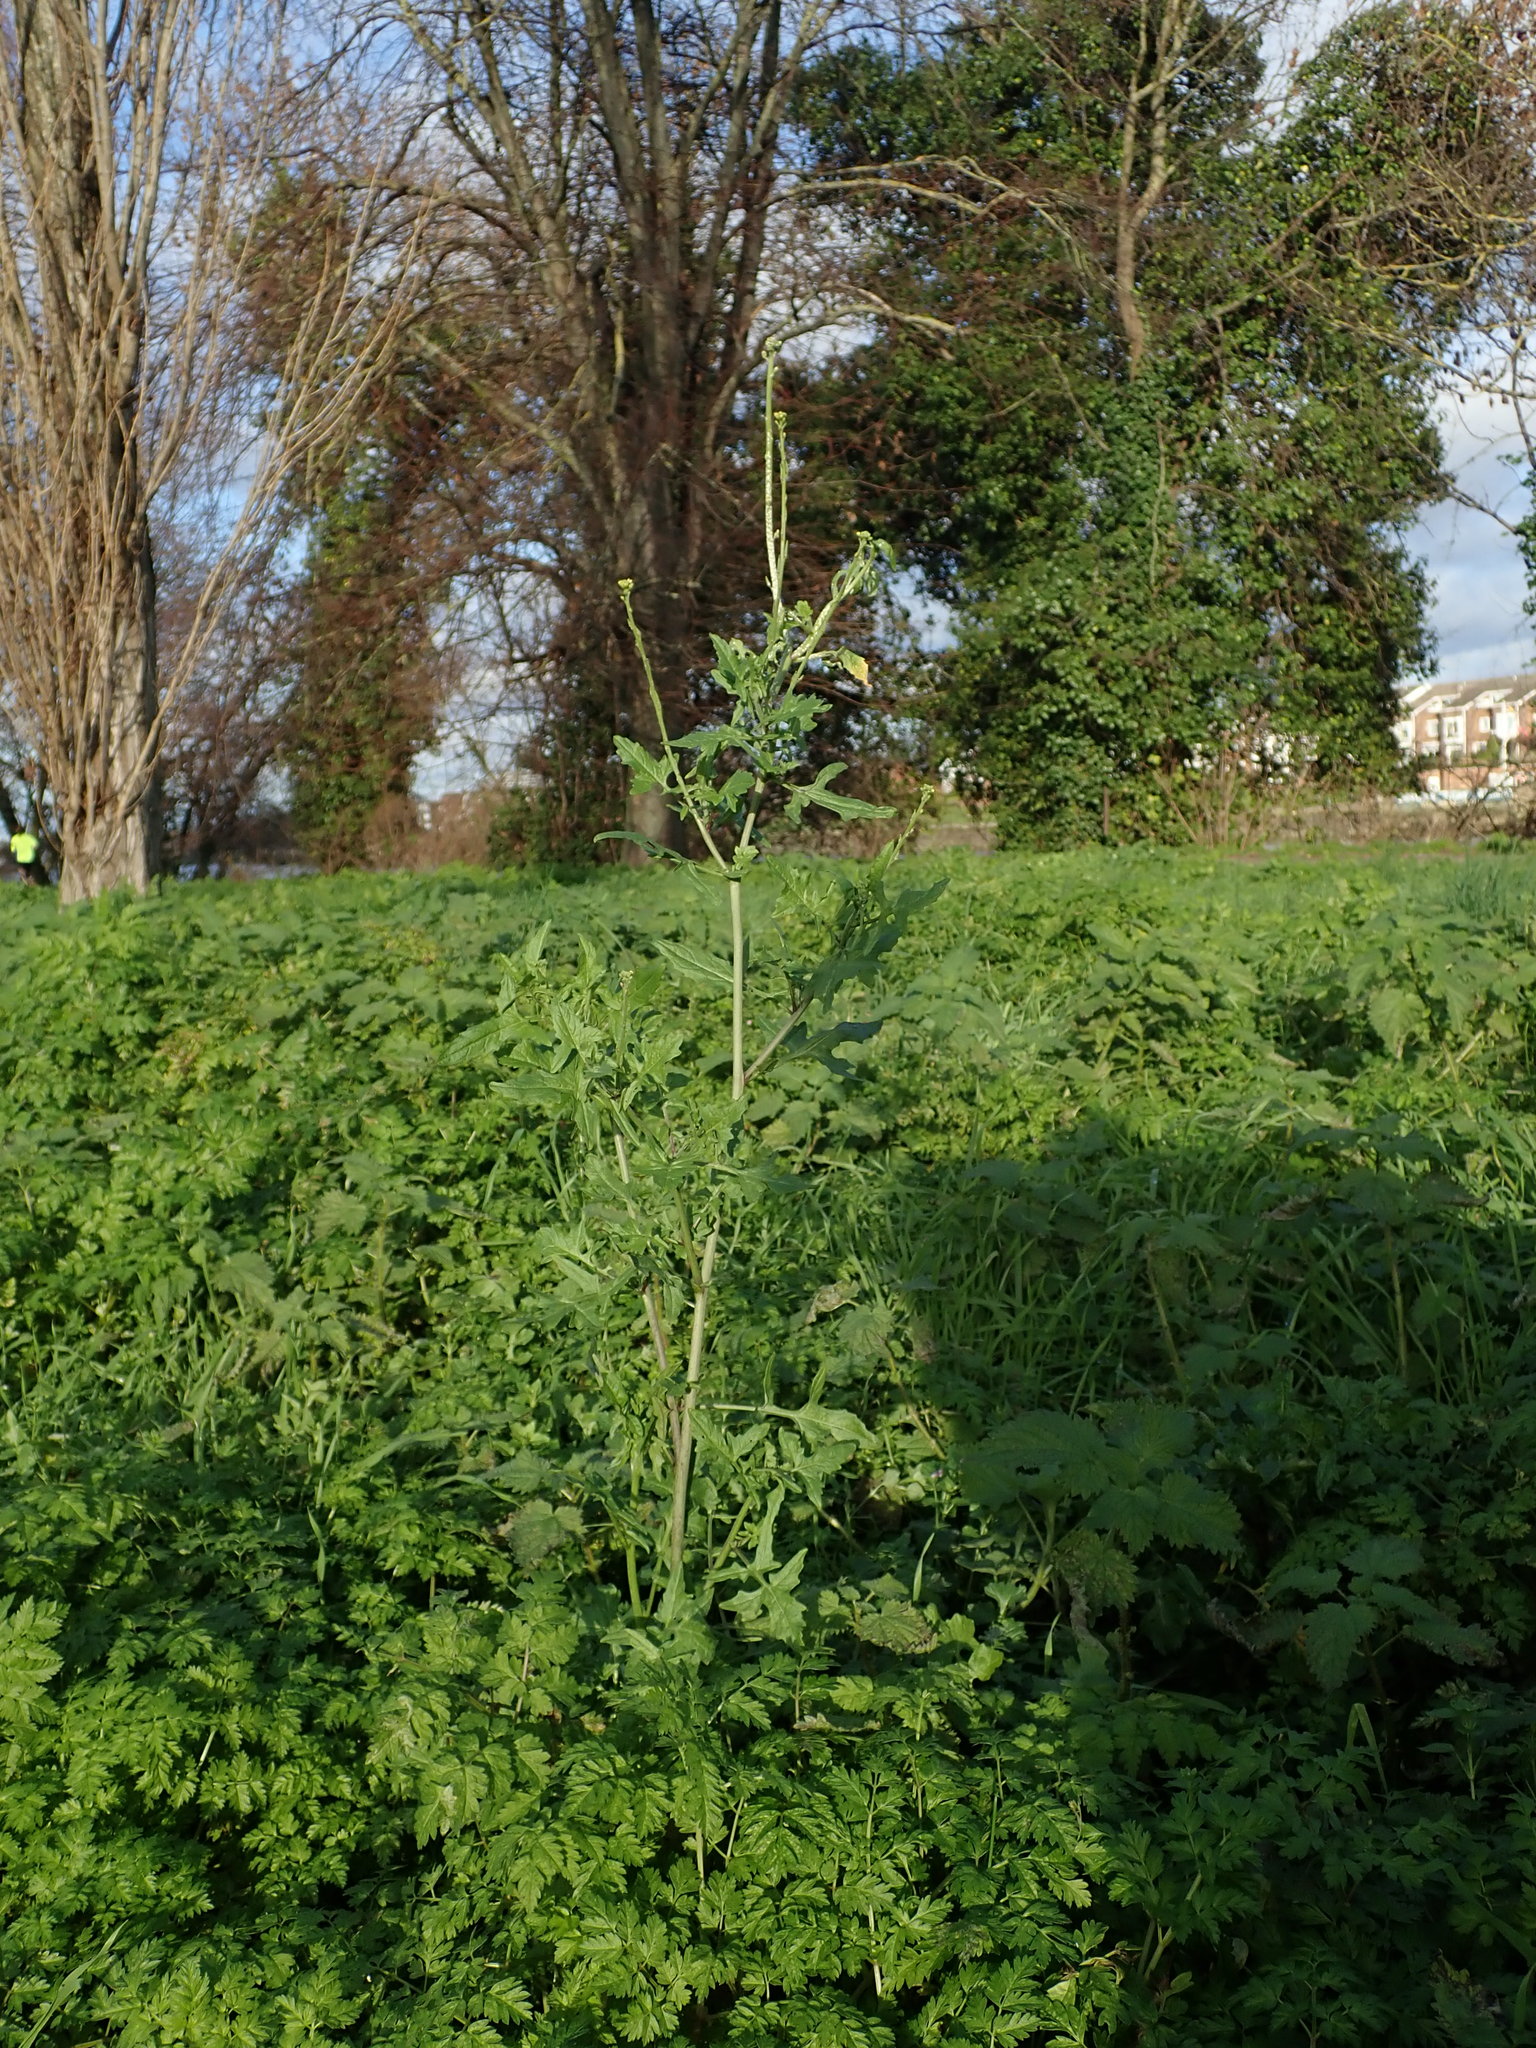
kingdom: Plantae
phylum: Tracheophyta
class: Magnoliopsida
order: Brassicales
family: Brassicaceae
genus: Sisymbrium
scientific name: Sisymbrium officinale
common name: Hedge mustard
